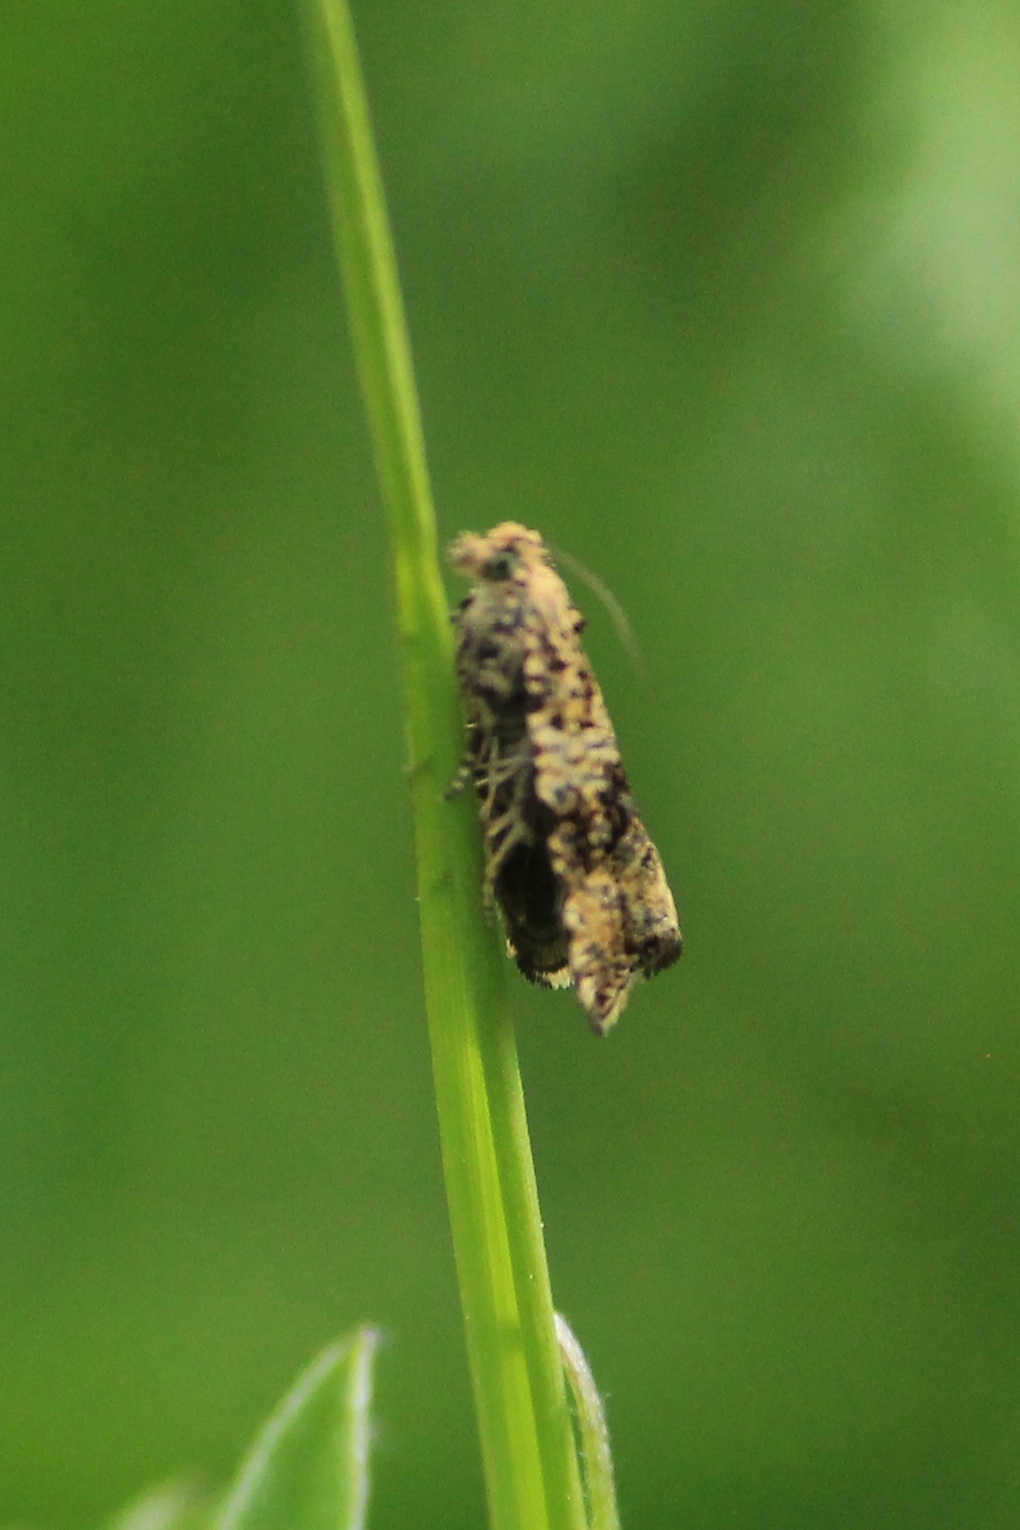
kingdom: Animalia
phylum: Arthropoda
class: Insecta
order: Lepidoptera
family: Tortricidae
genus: Syricoris
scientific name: Syricoris lacunana
